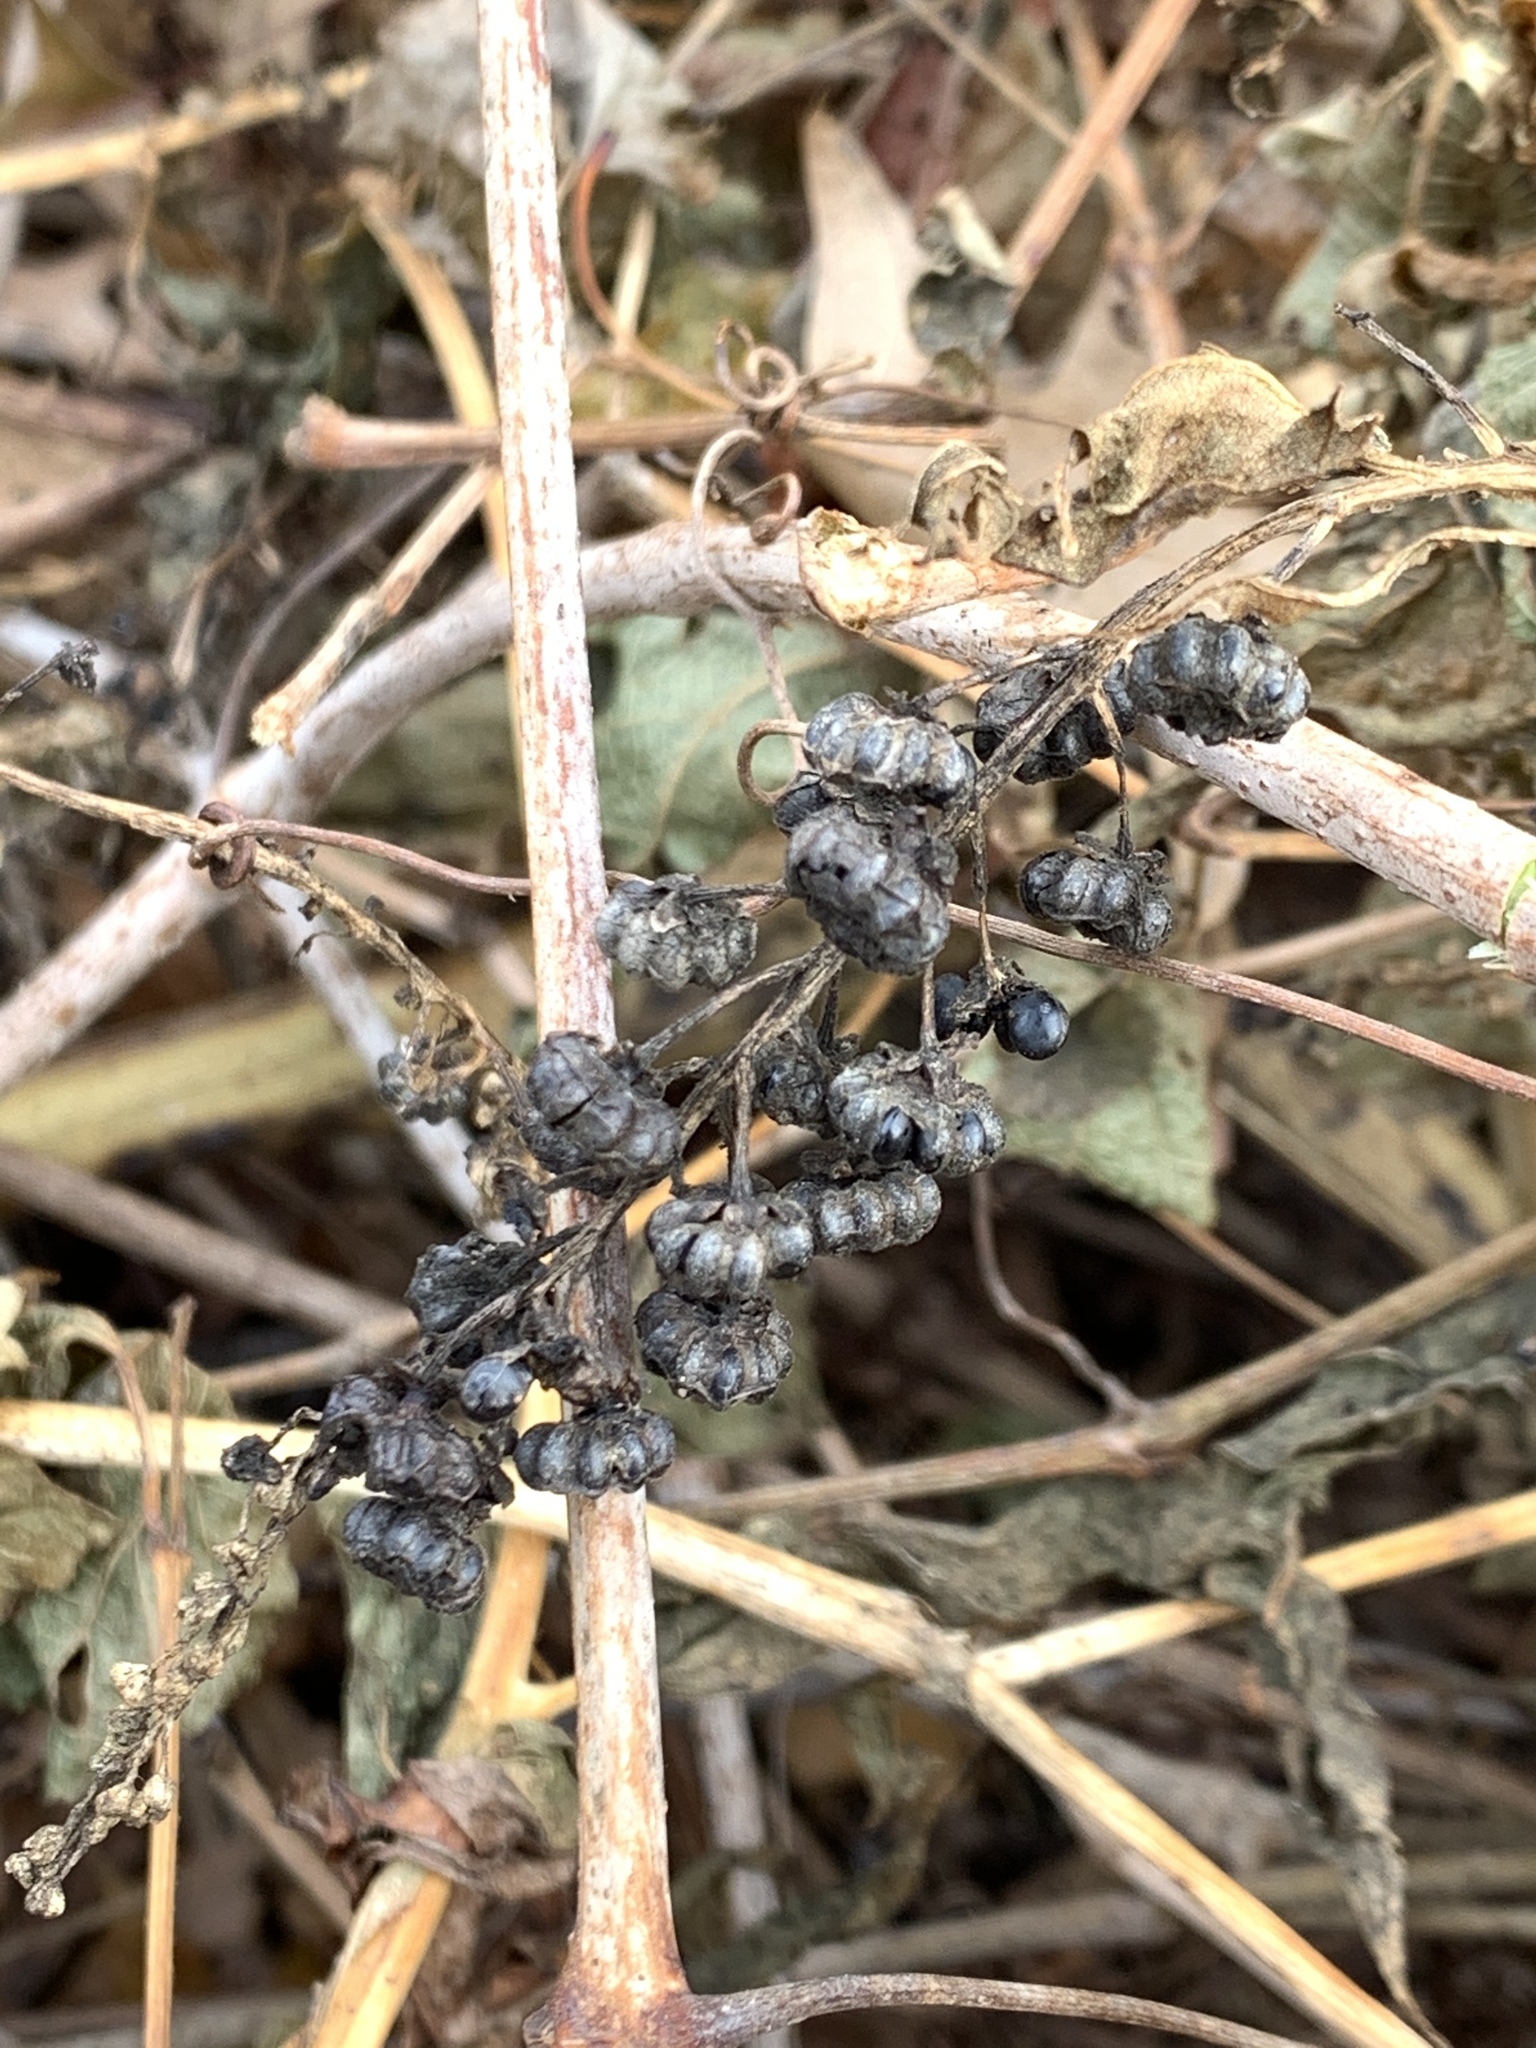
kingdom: Plantae
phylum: Tracheophyta
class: Magnoliopsida
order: Caryophyllales
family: Phytolaccaceae
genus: Phytolacca
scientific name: Phytolacca americana
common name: American pokeweed
